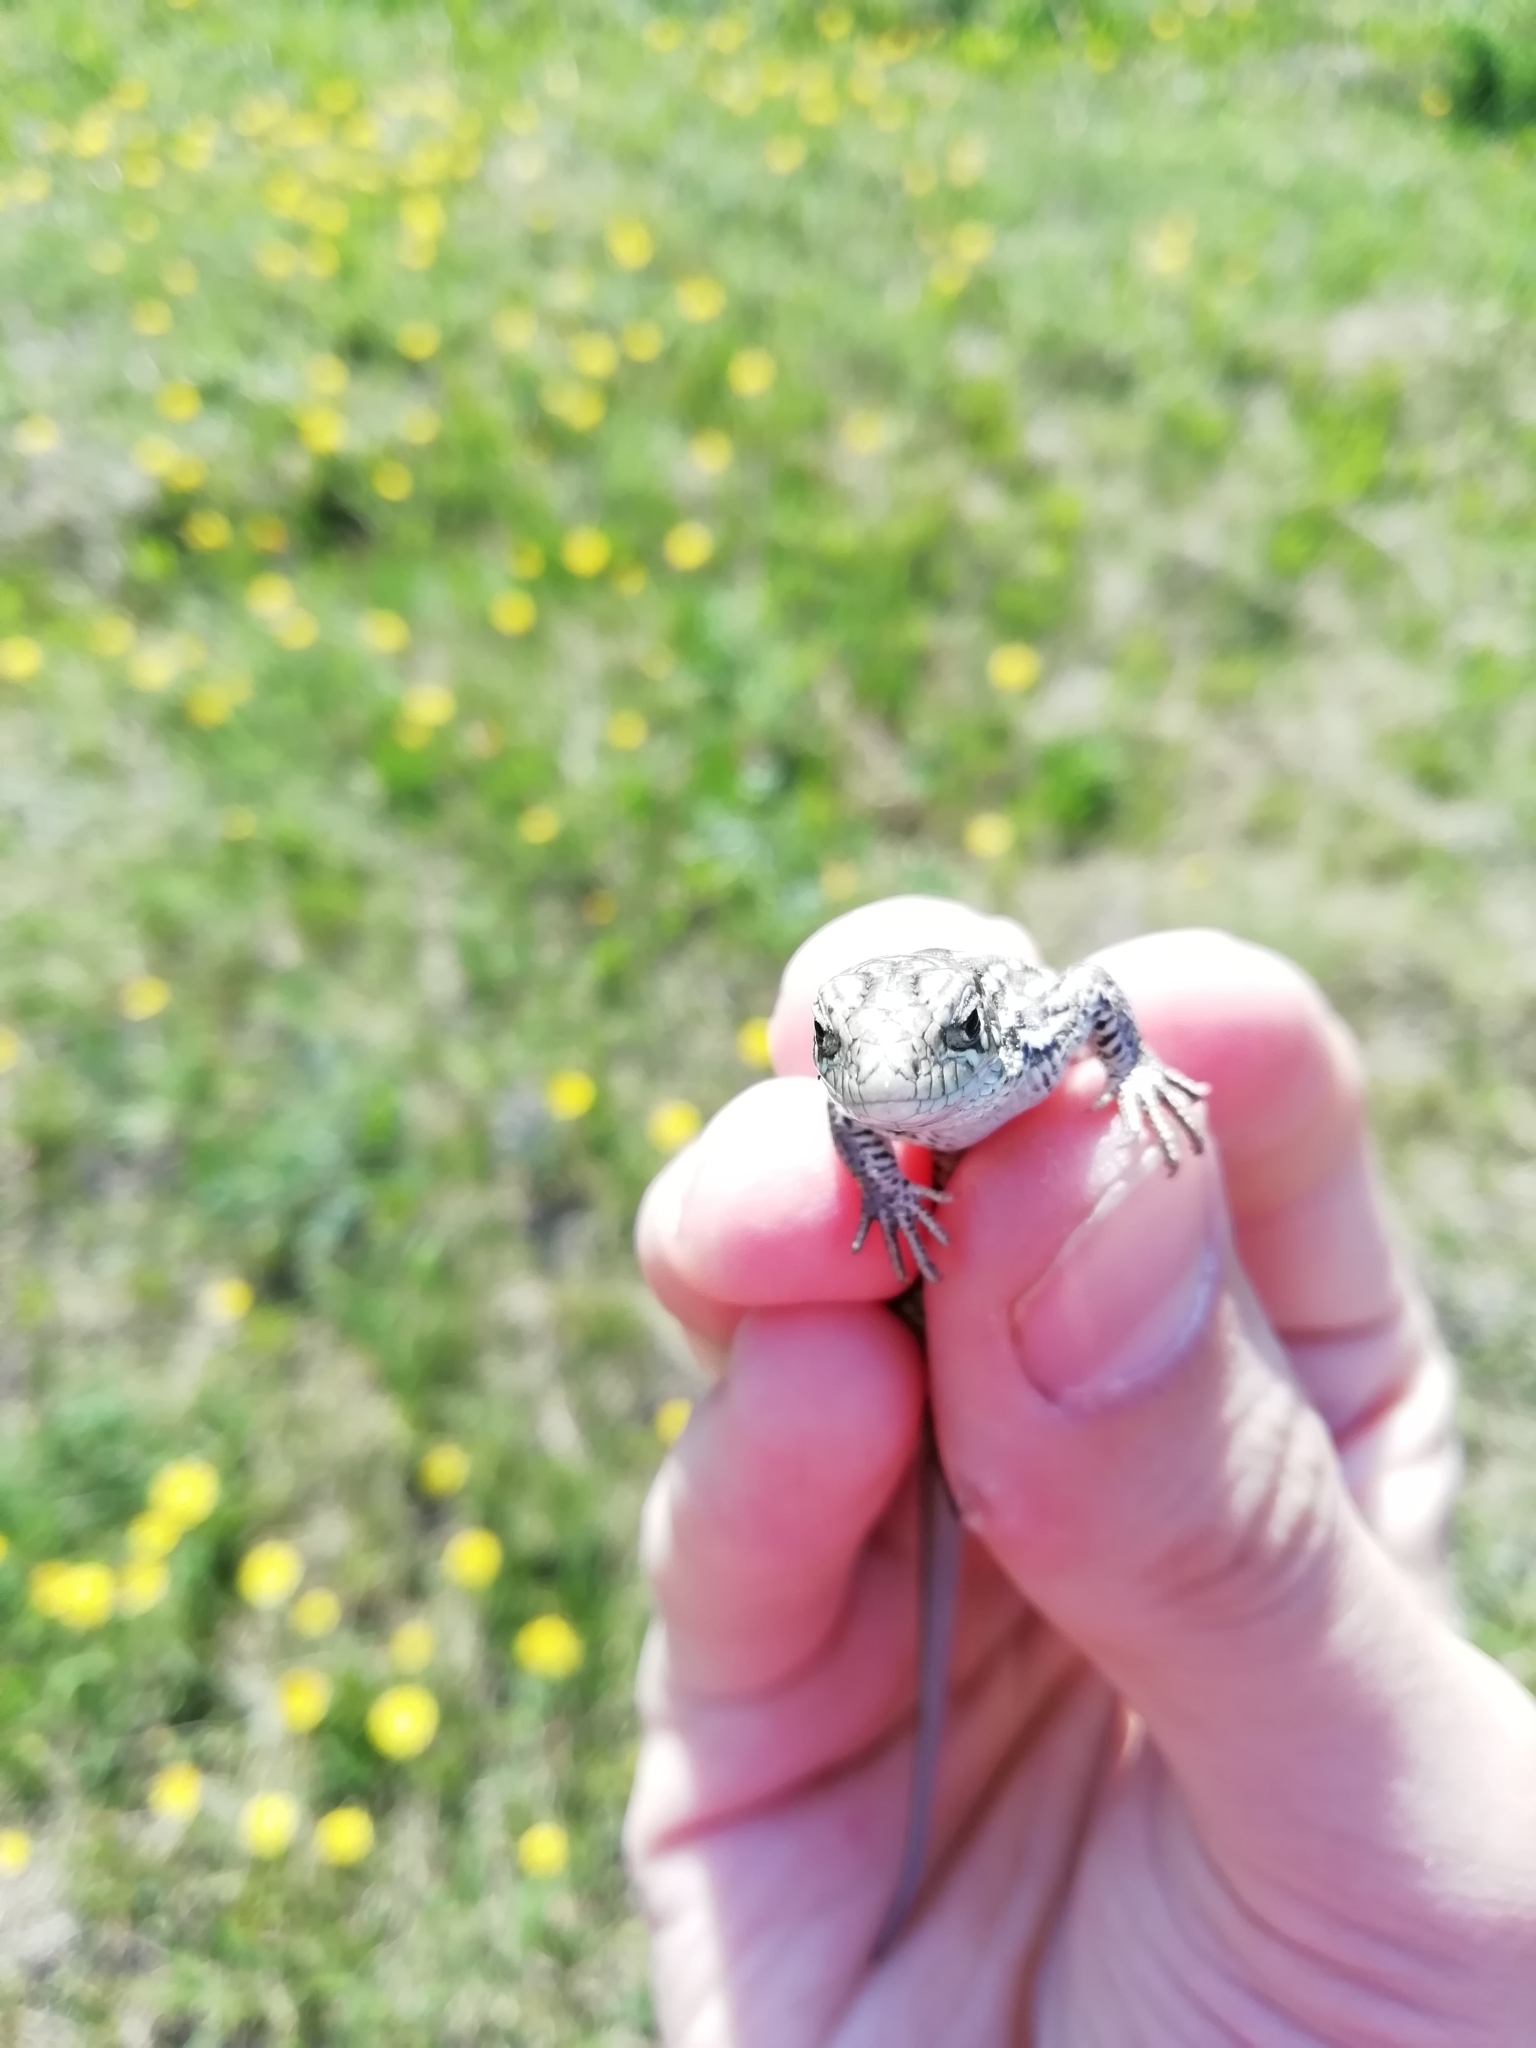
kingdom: Animalia
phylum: Chordata
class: Squamata
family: Lacertidae
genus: Lacerta
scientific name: Lacerta agilis
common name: Sand lizard
